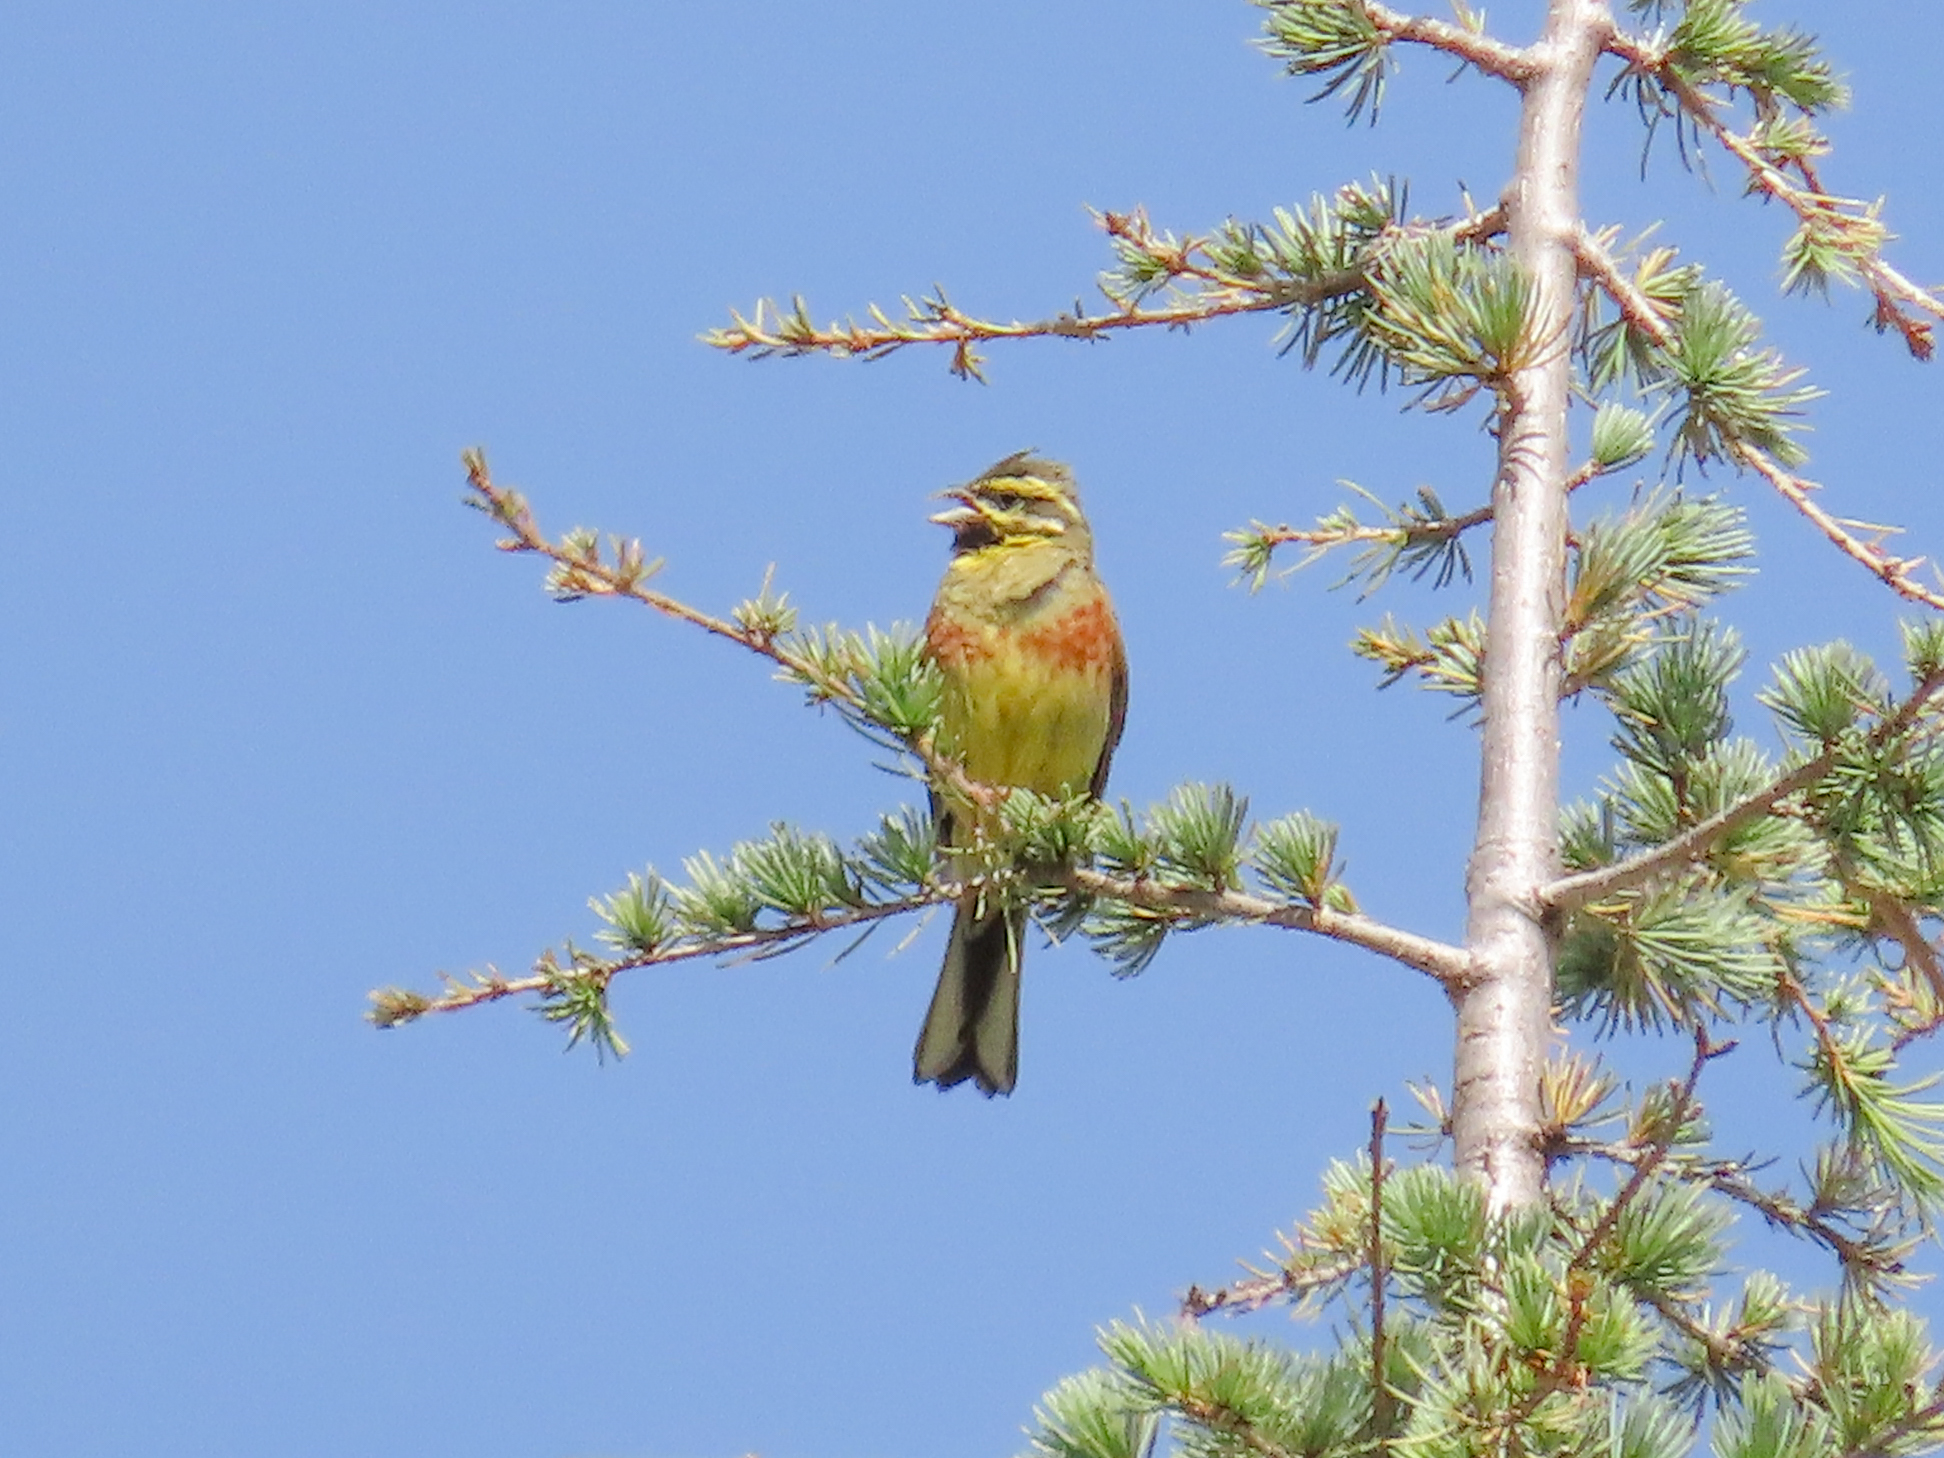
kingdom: Animalia
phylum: Chordata
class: Aves
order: Passeriformes
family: Emberizidae
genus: Emberiza
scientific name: Emberiza cirlus
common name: Cirl bunting
